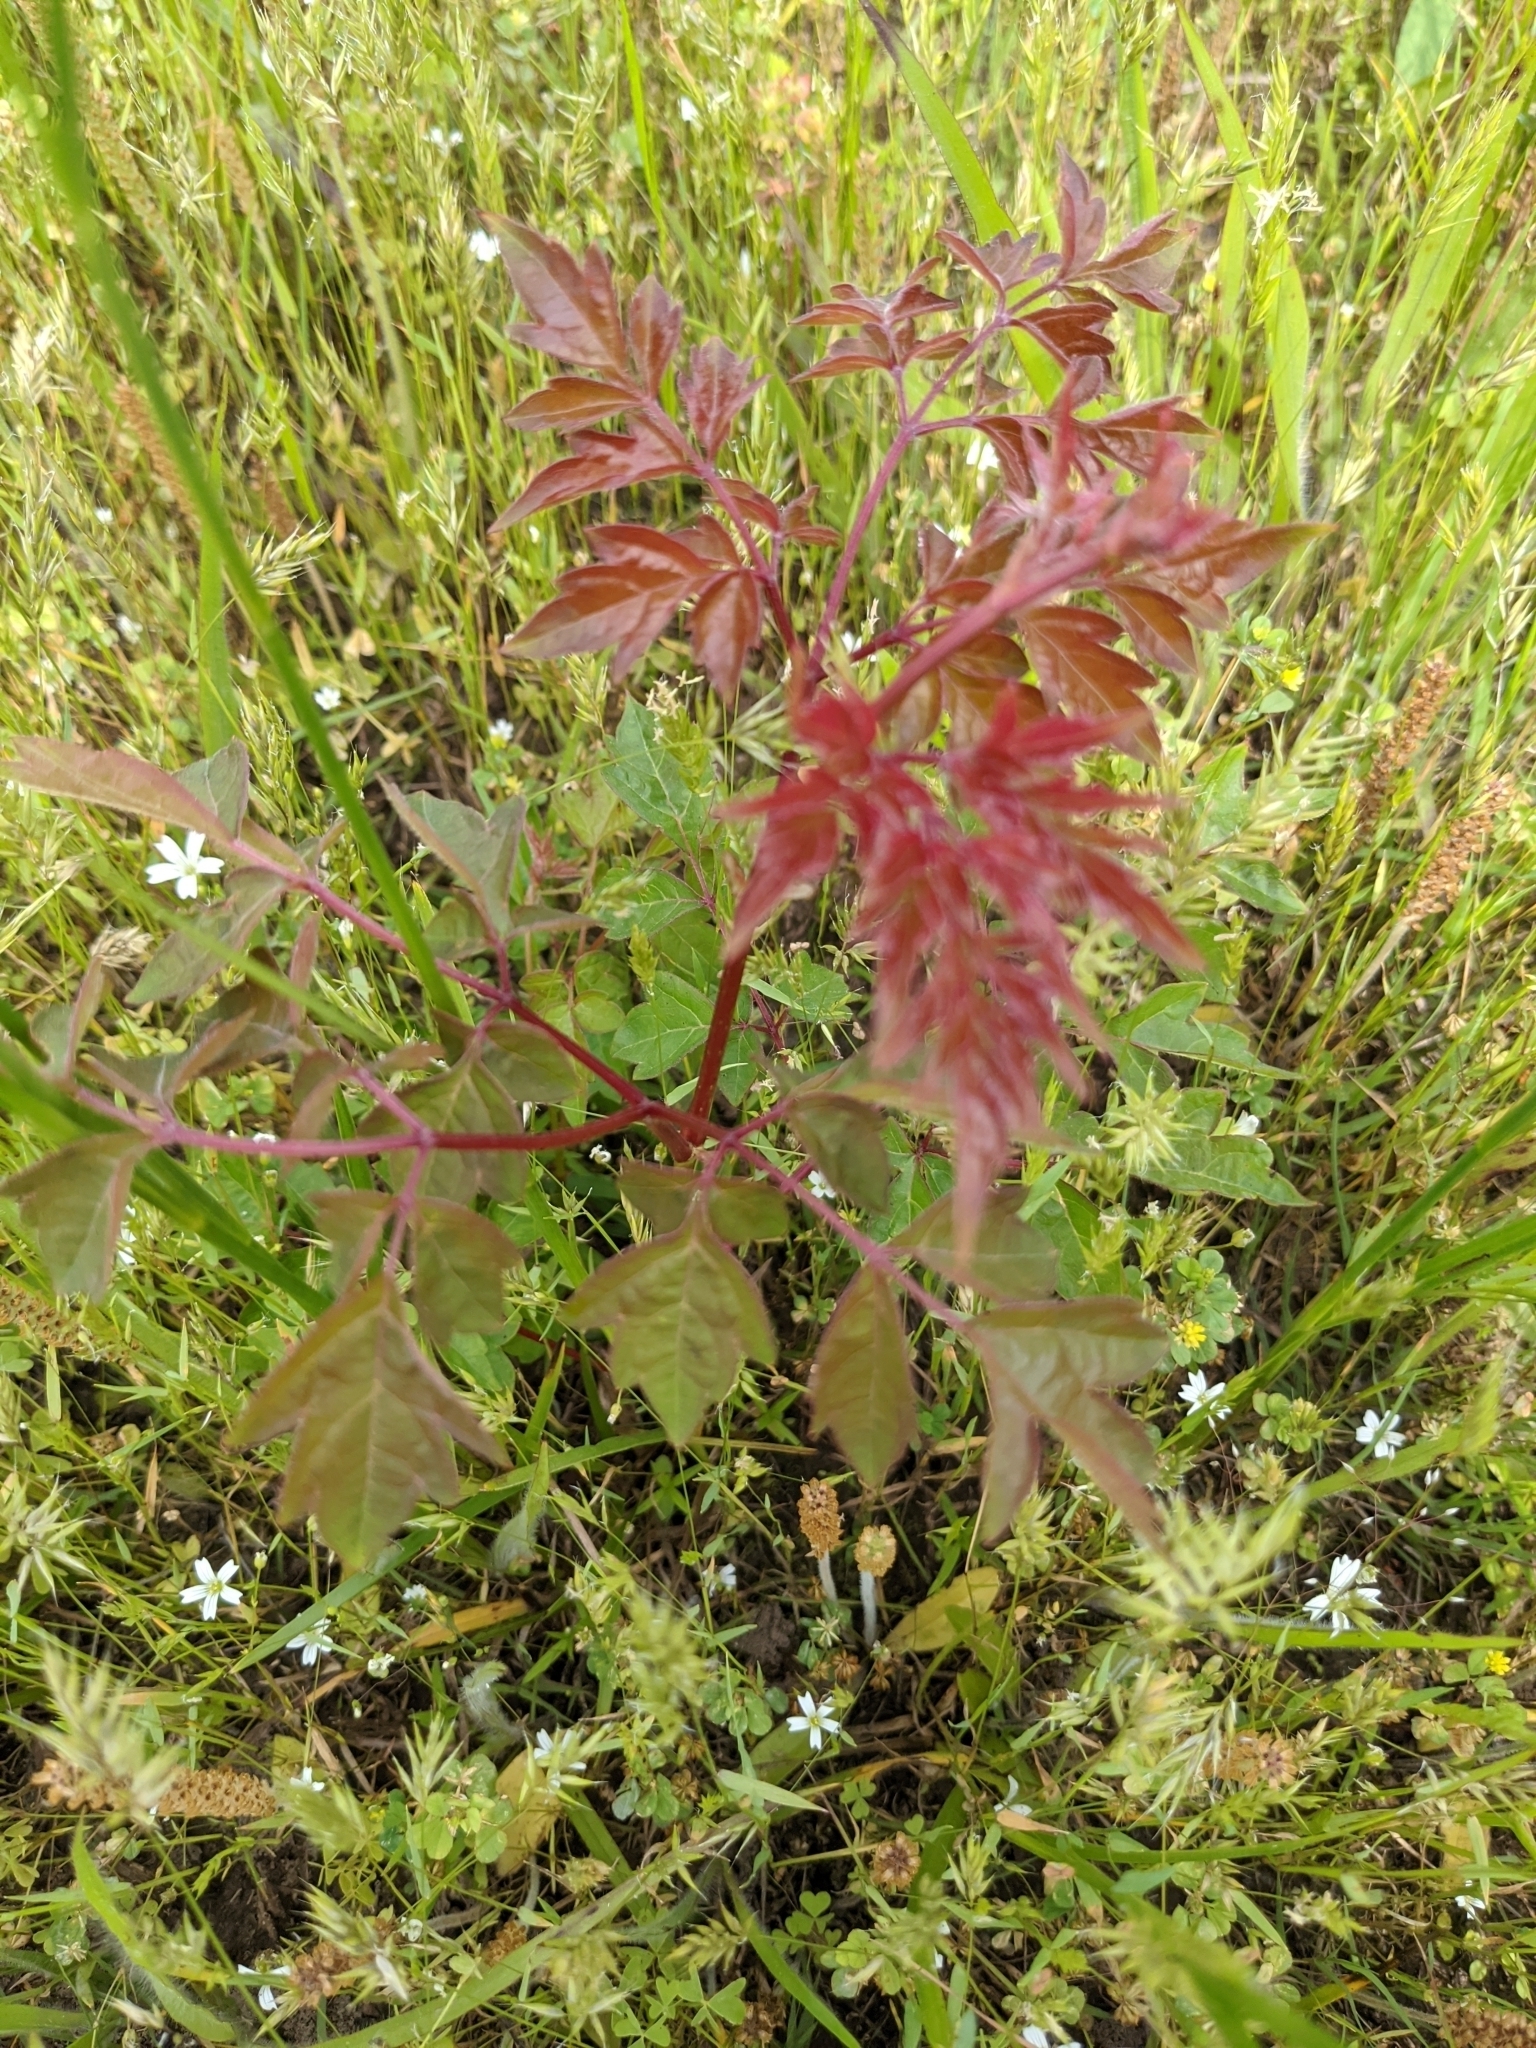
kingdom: Plantae
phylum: Tracheophyta
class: Magnoliopsida
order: Vitales
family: Vitaceae
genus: Nekemias
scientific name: Nekemias arborea
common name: Peppervine
